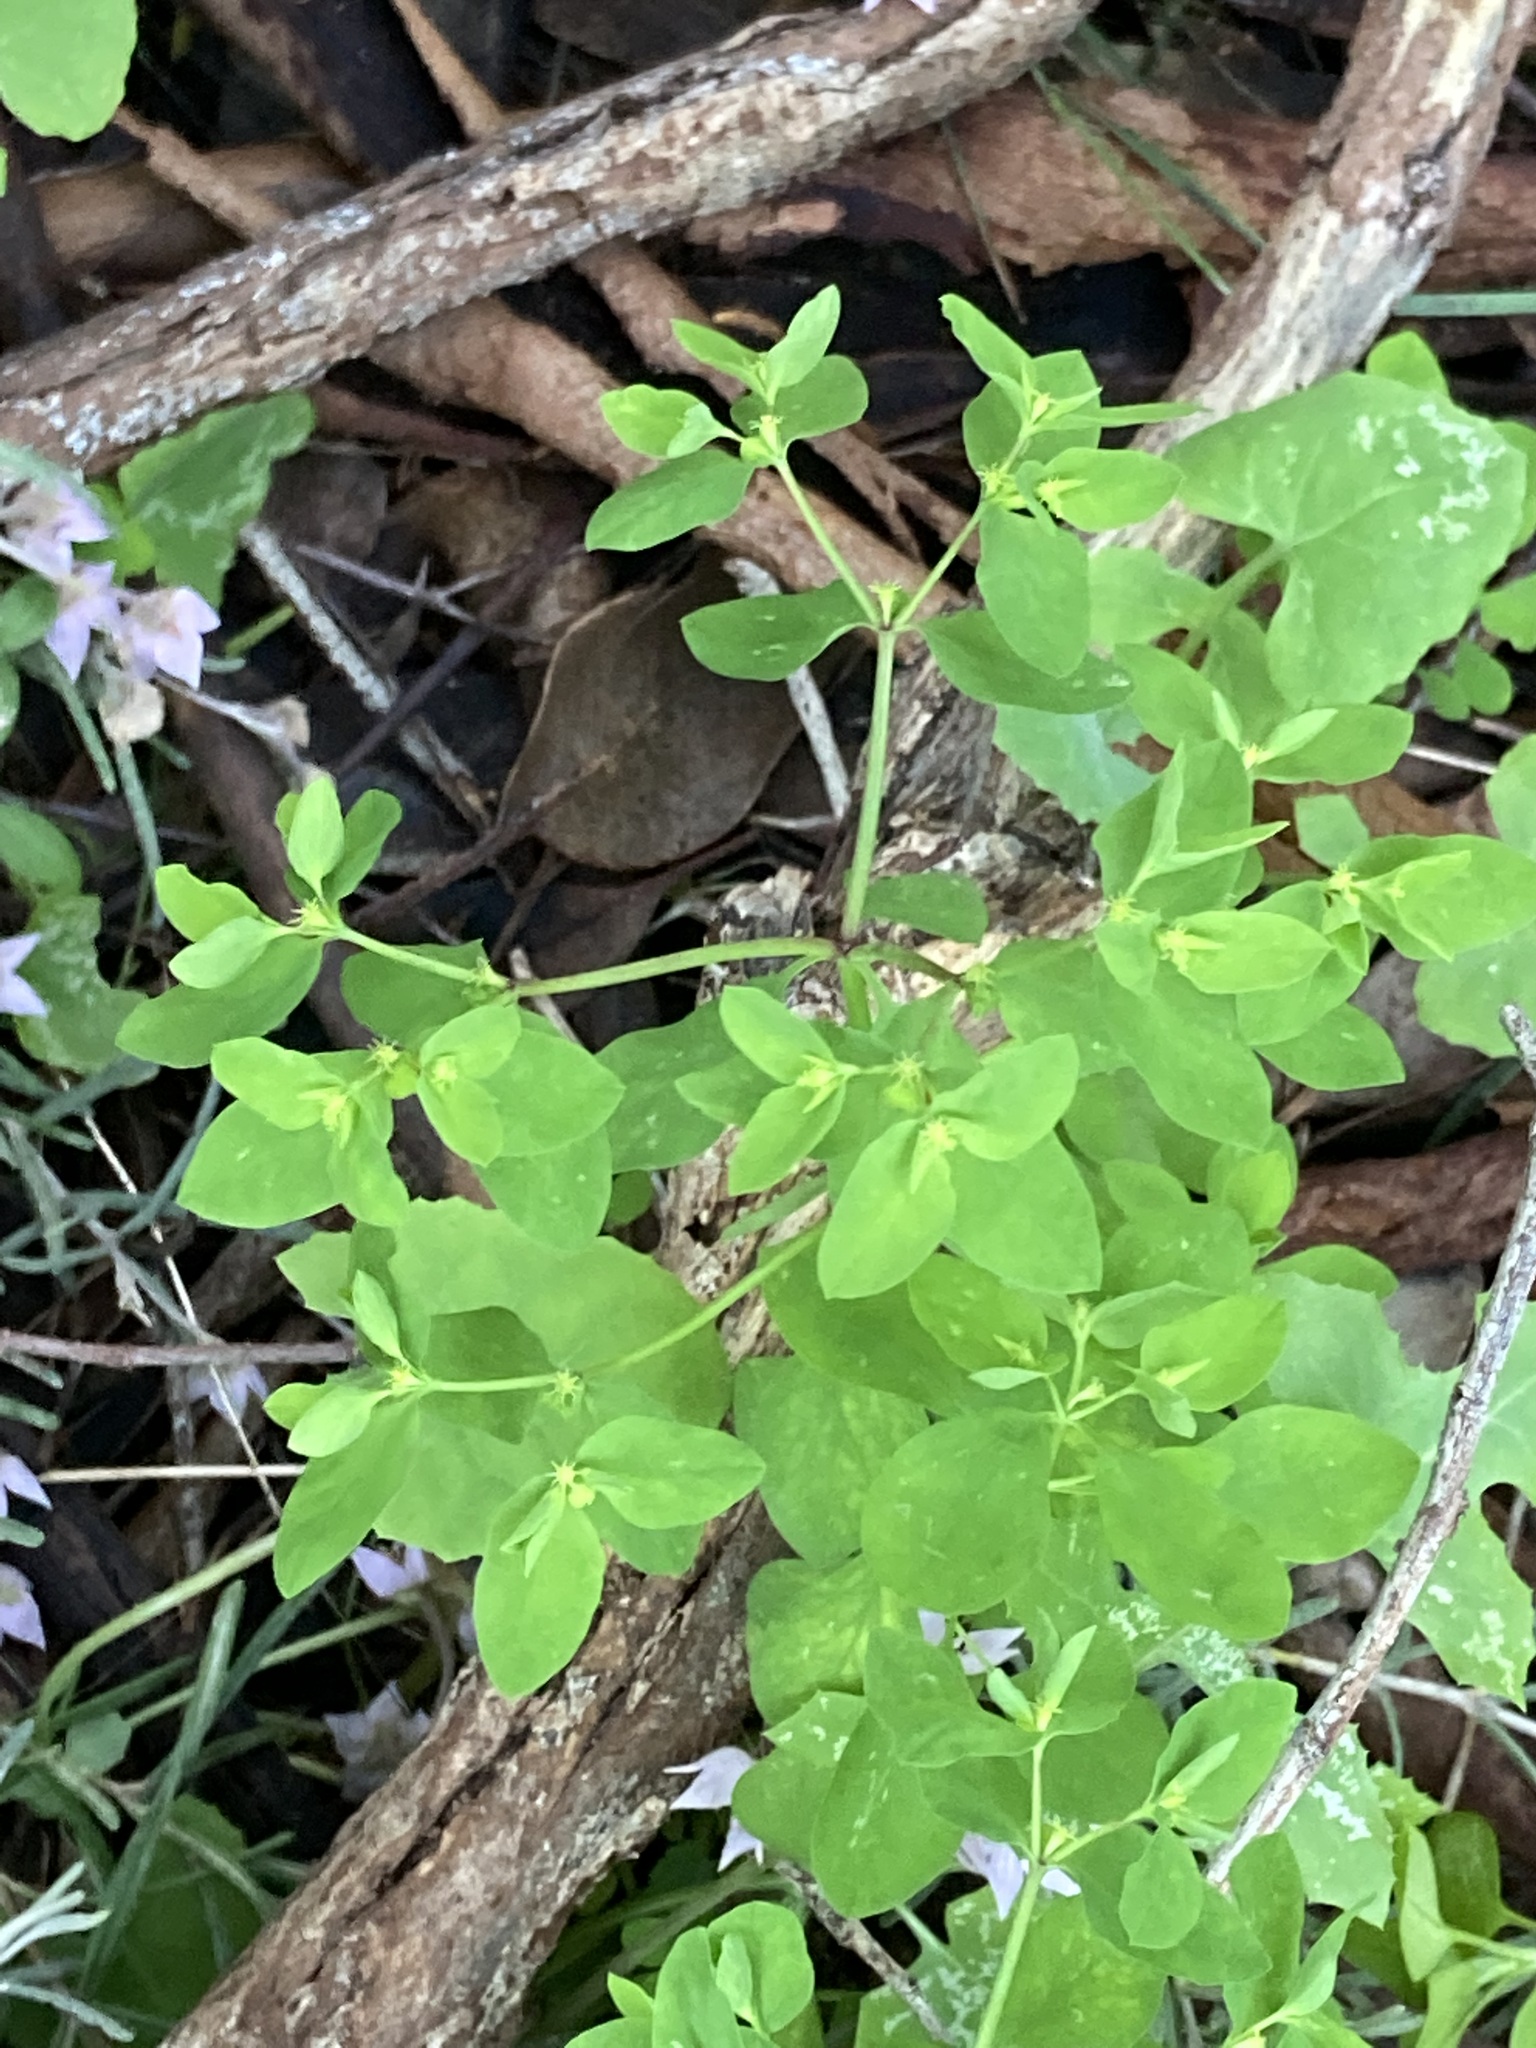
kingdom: Plantae
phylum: Tracheophyta
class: Magnoliopsida
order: Malpighiales
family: Euphorbiaceae
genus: Euphorbia
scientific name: Euphorbia peplus
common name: Petty spurge
